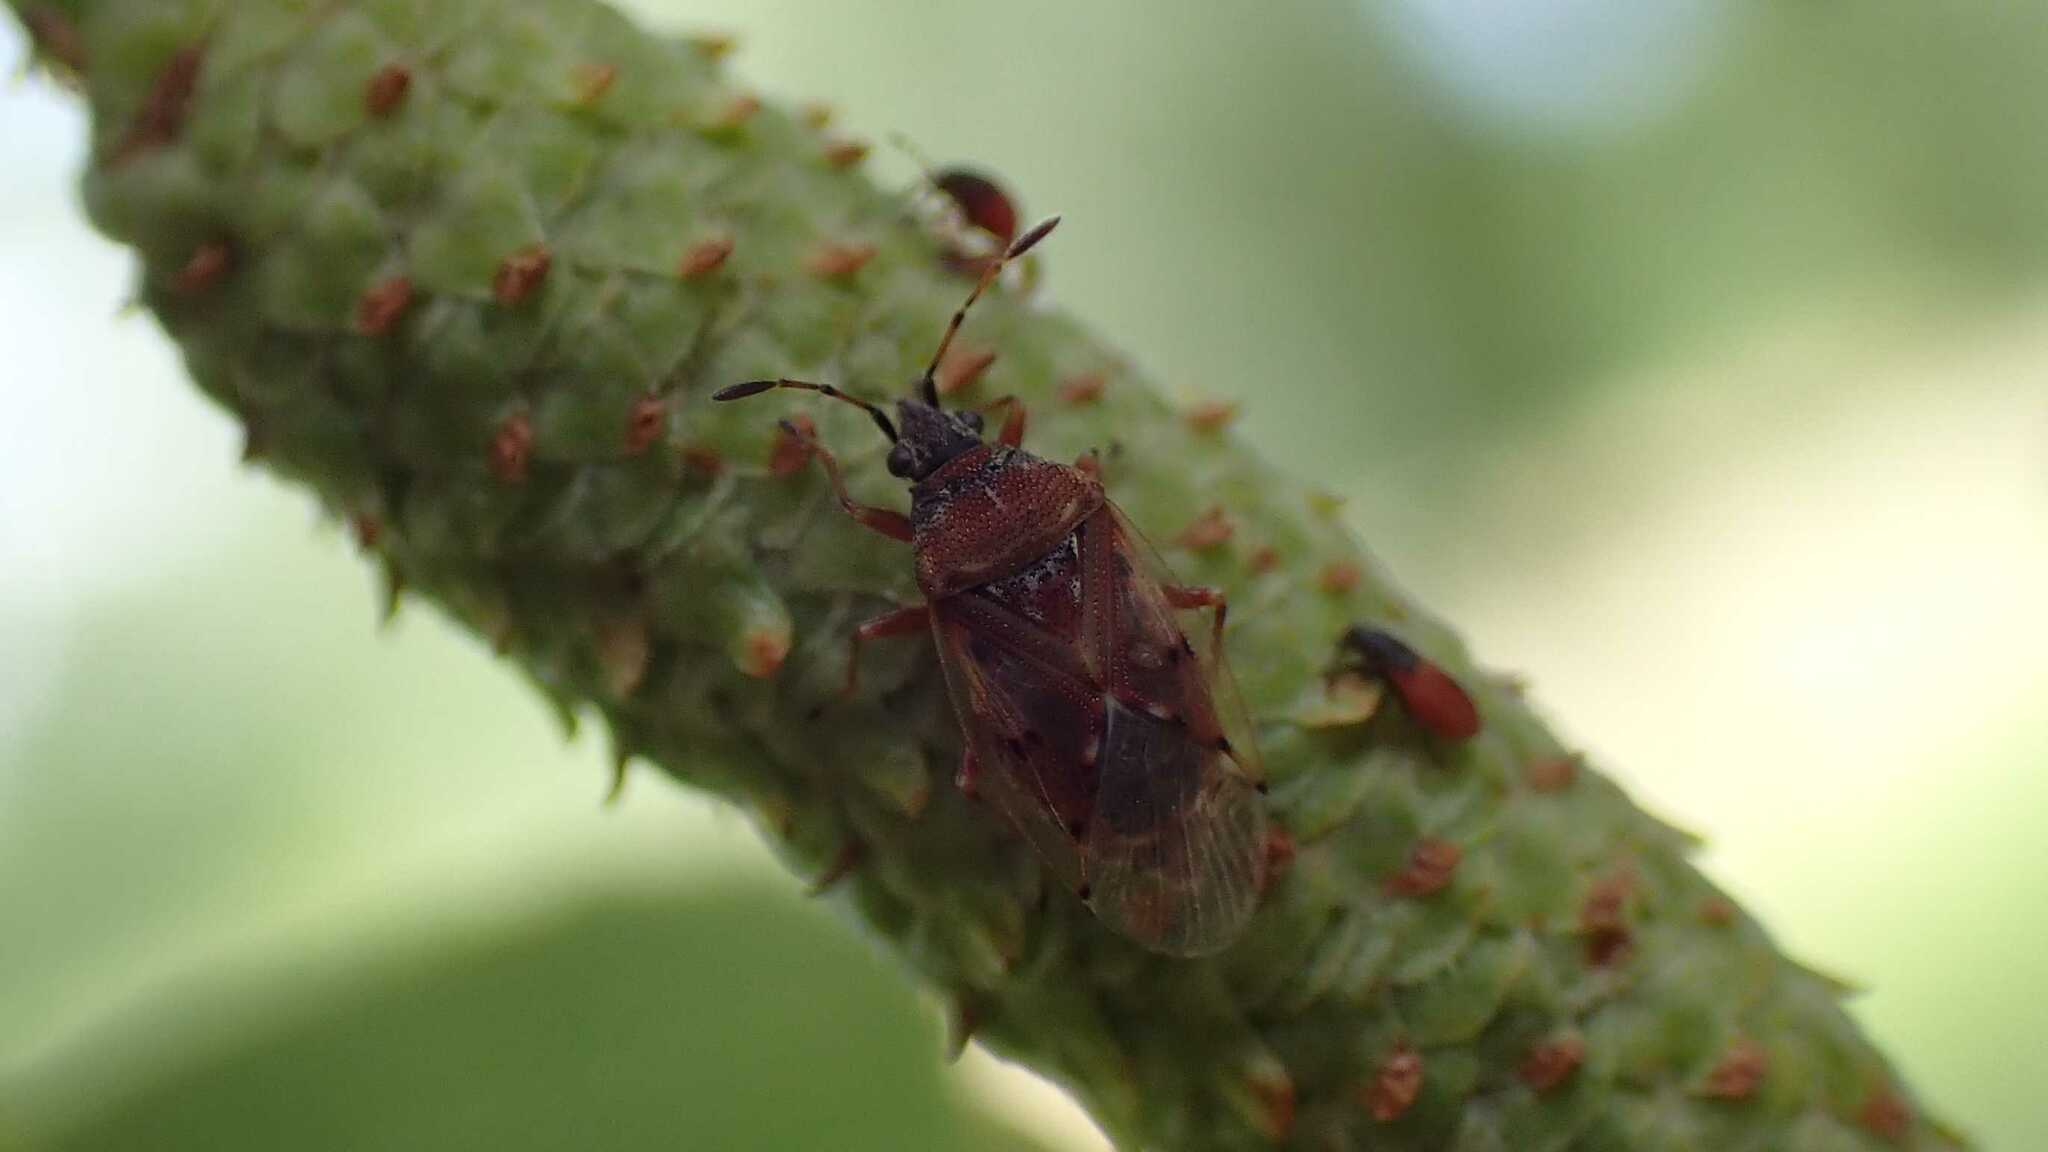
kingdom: Animalia
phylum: Arthropoda
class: Insecta
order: Hemiptera
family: Lygaeidae
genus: Kleidocerys
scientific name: Kleidocerys resedae
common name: Birch catkin bug
